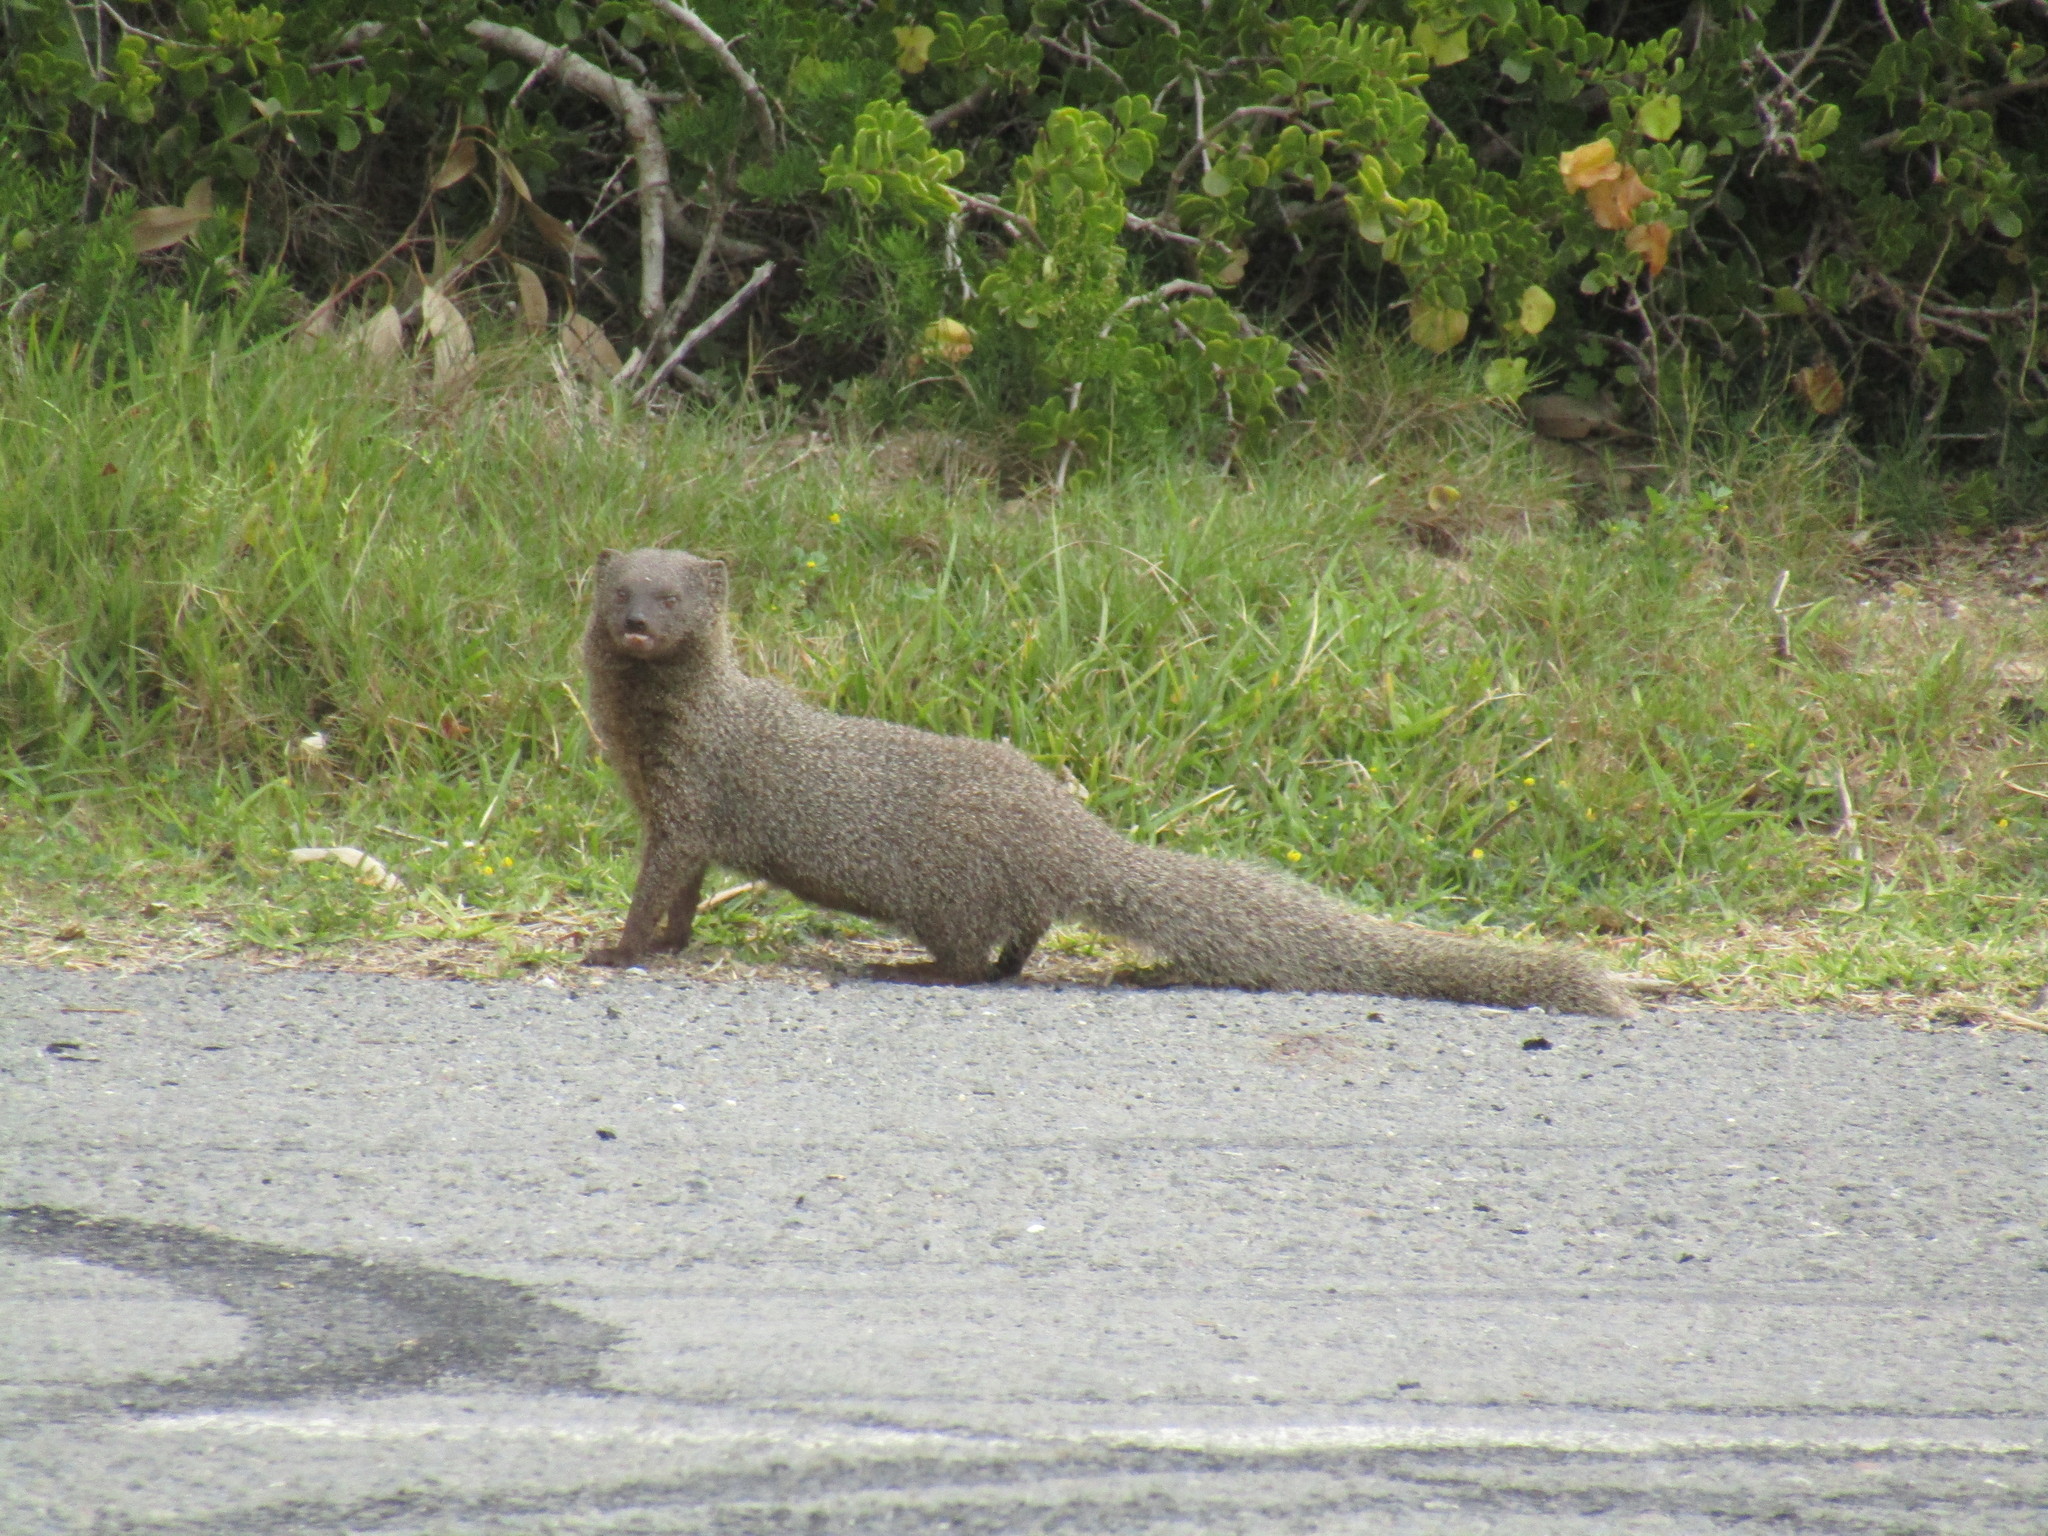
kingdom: Animalia
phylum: Chordata
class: Mammalia
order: Carnivora
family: Herpestidae
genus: Galerella
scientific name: Galerella pulverulenta
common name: Cape gray mongoose
